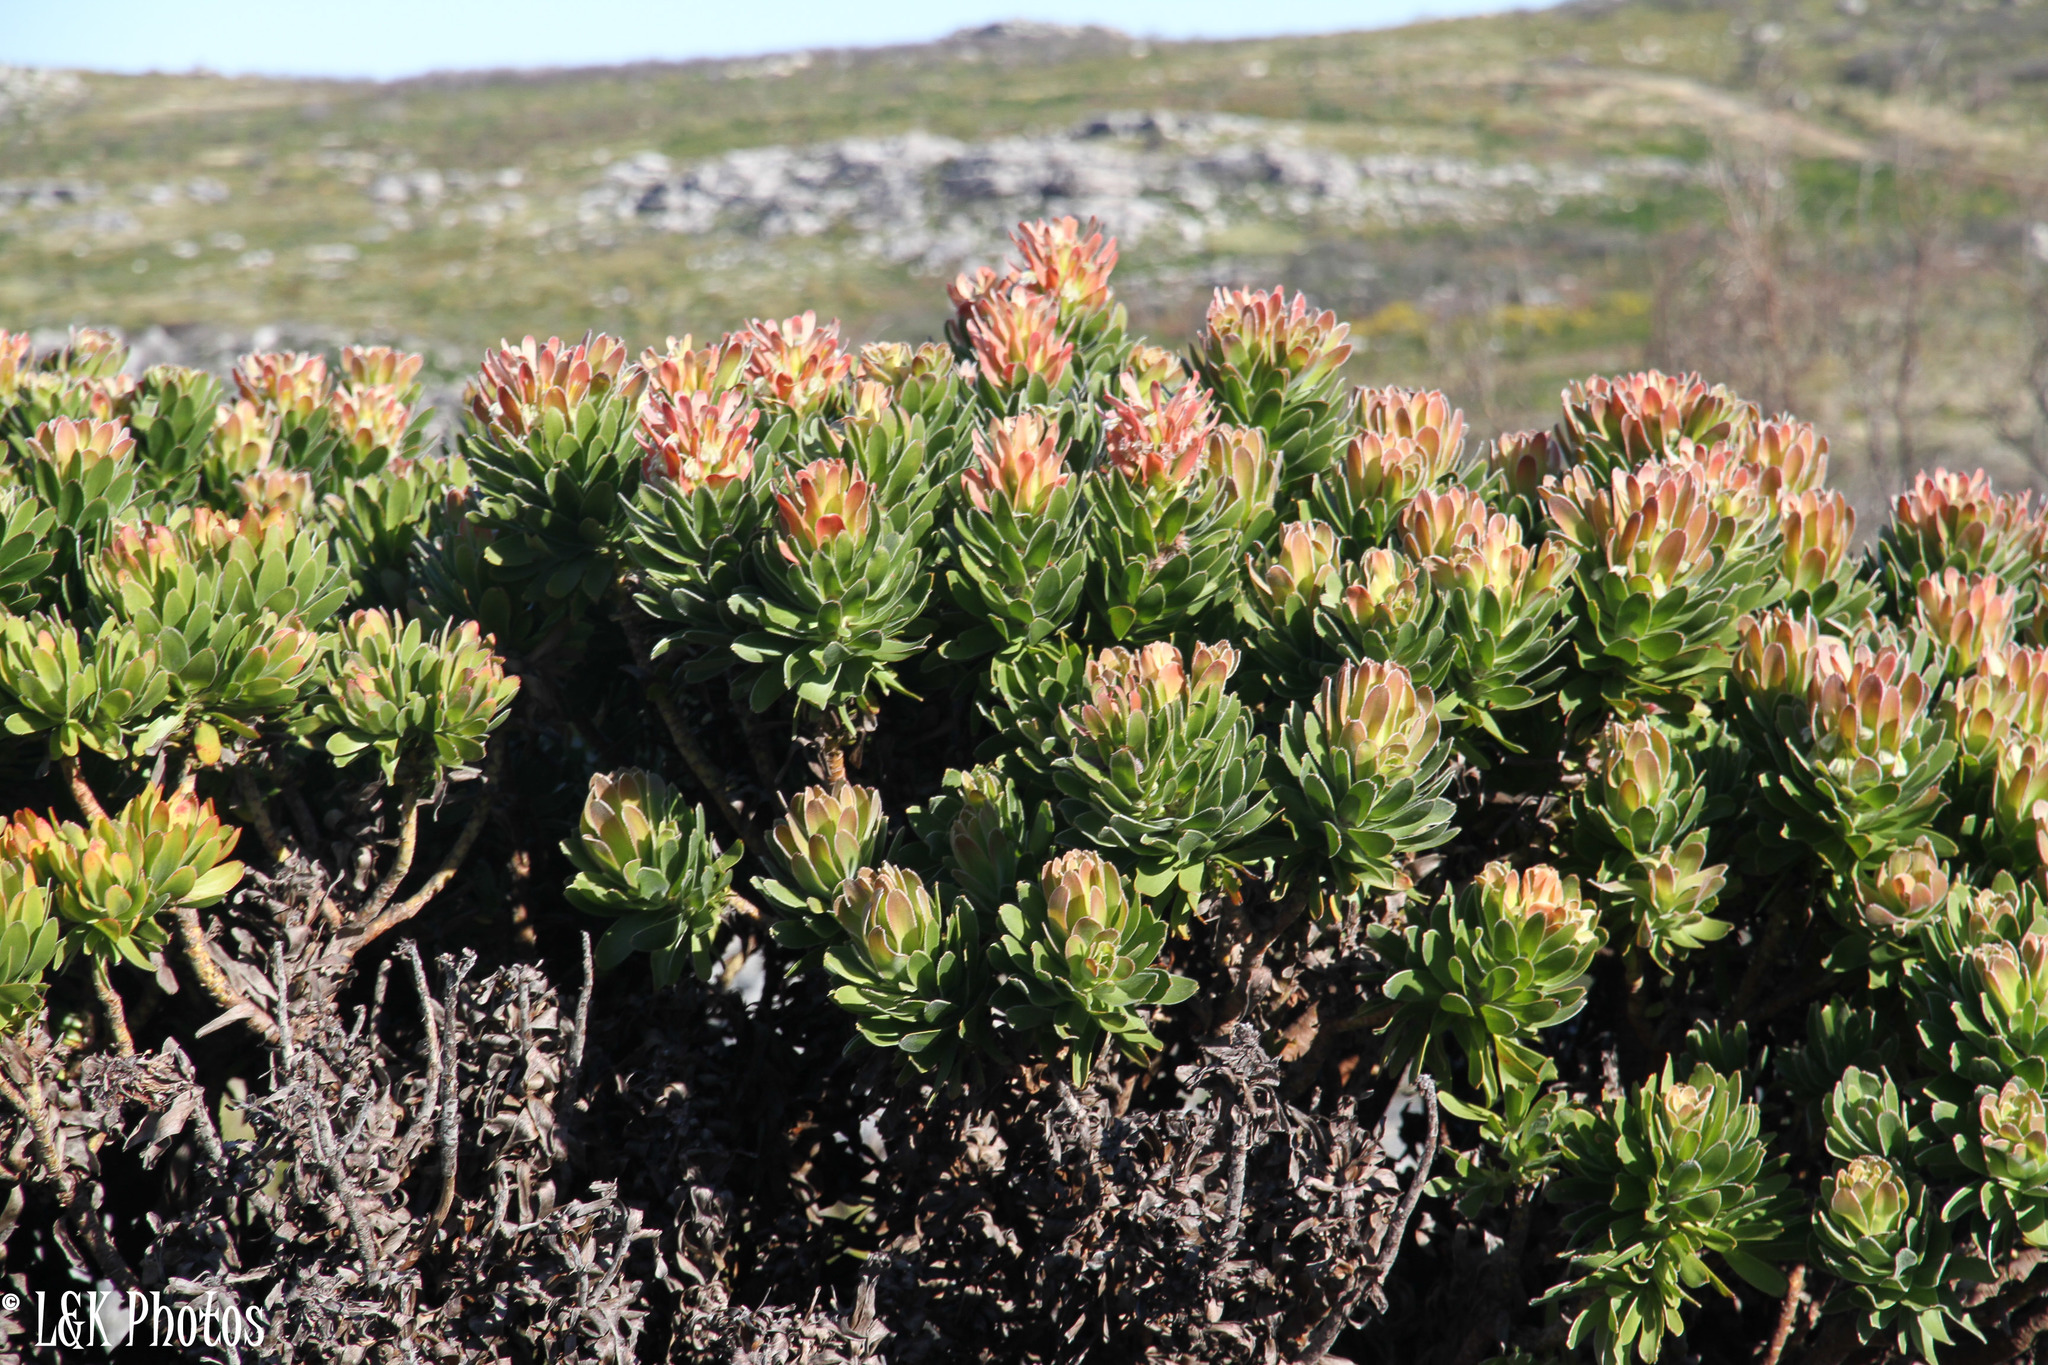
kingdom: Plantae
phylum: Tracheophyta
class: Magnoliopsida
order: Proteales
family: Proteaceae
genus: Mimetes
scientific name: Mimetes fimbriifolius
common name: Fringed bottlebrush
